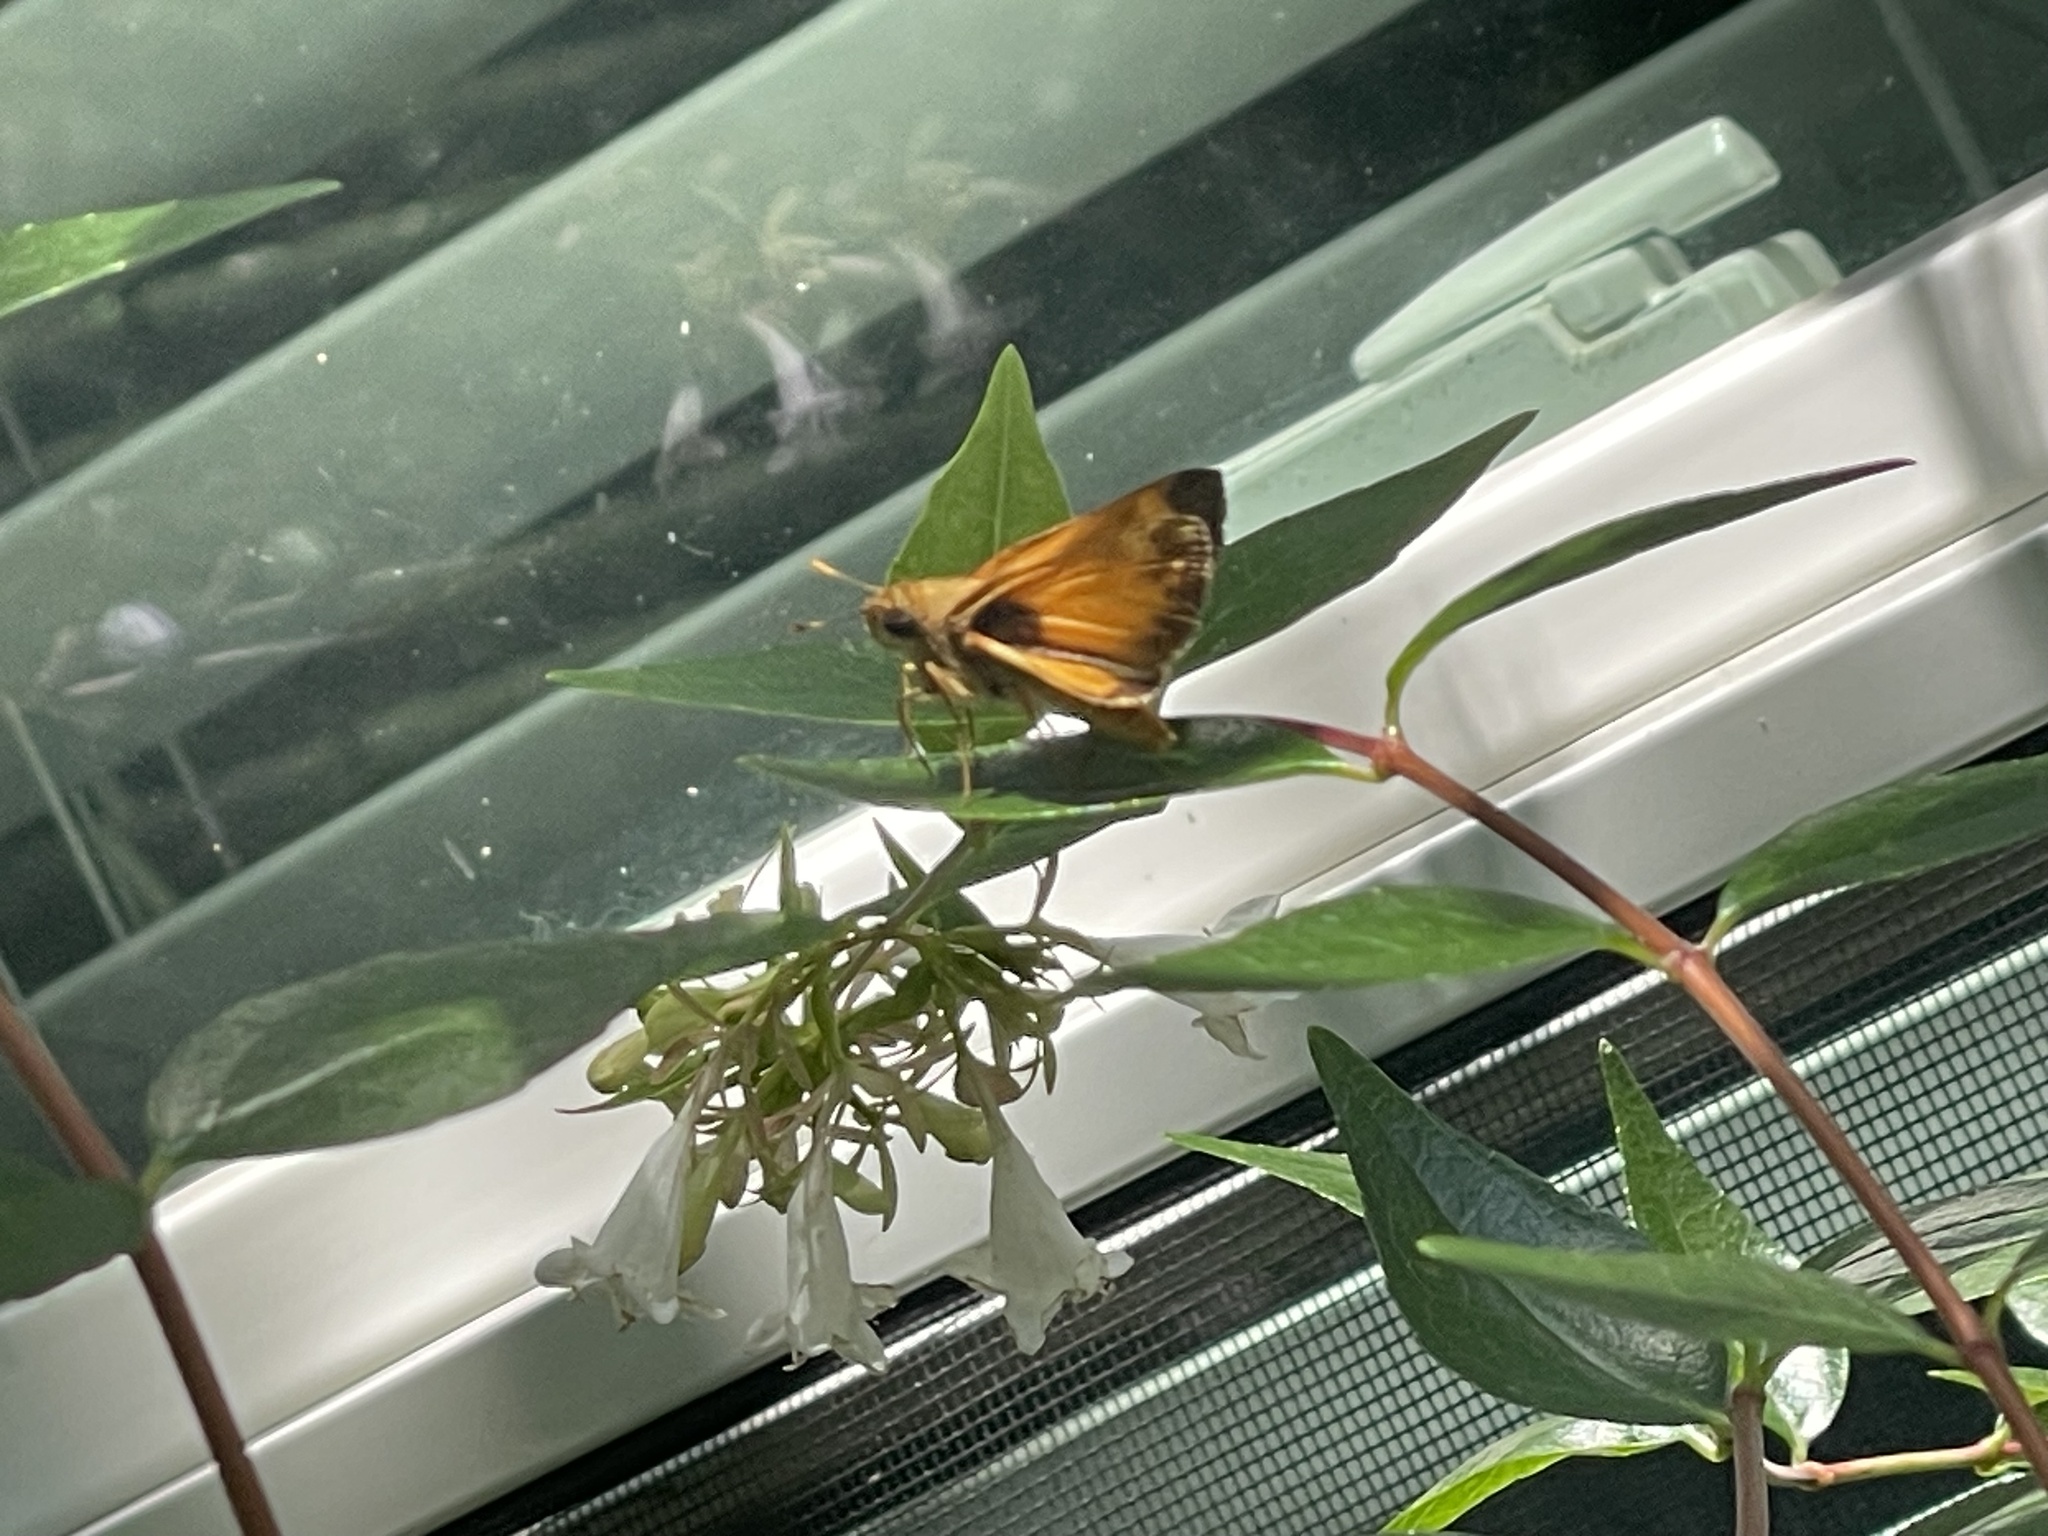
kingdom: Animalia
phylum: Arthropoda
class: Insecta
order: Lepidoptera
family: Hesperiidae
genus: Lon
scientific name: Lon zabulon
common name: Zabulon skipper
